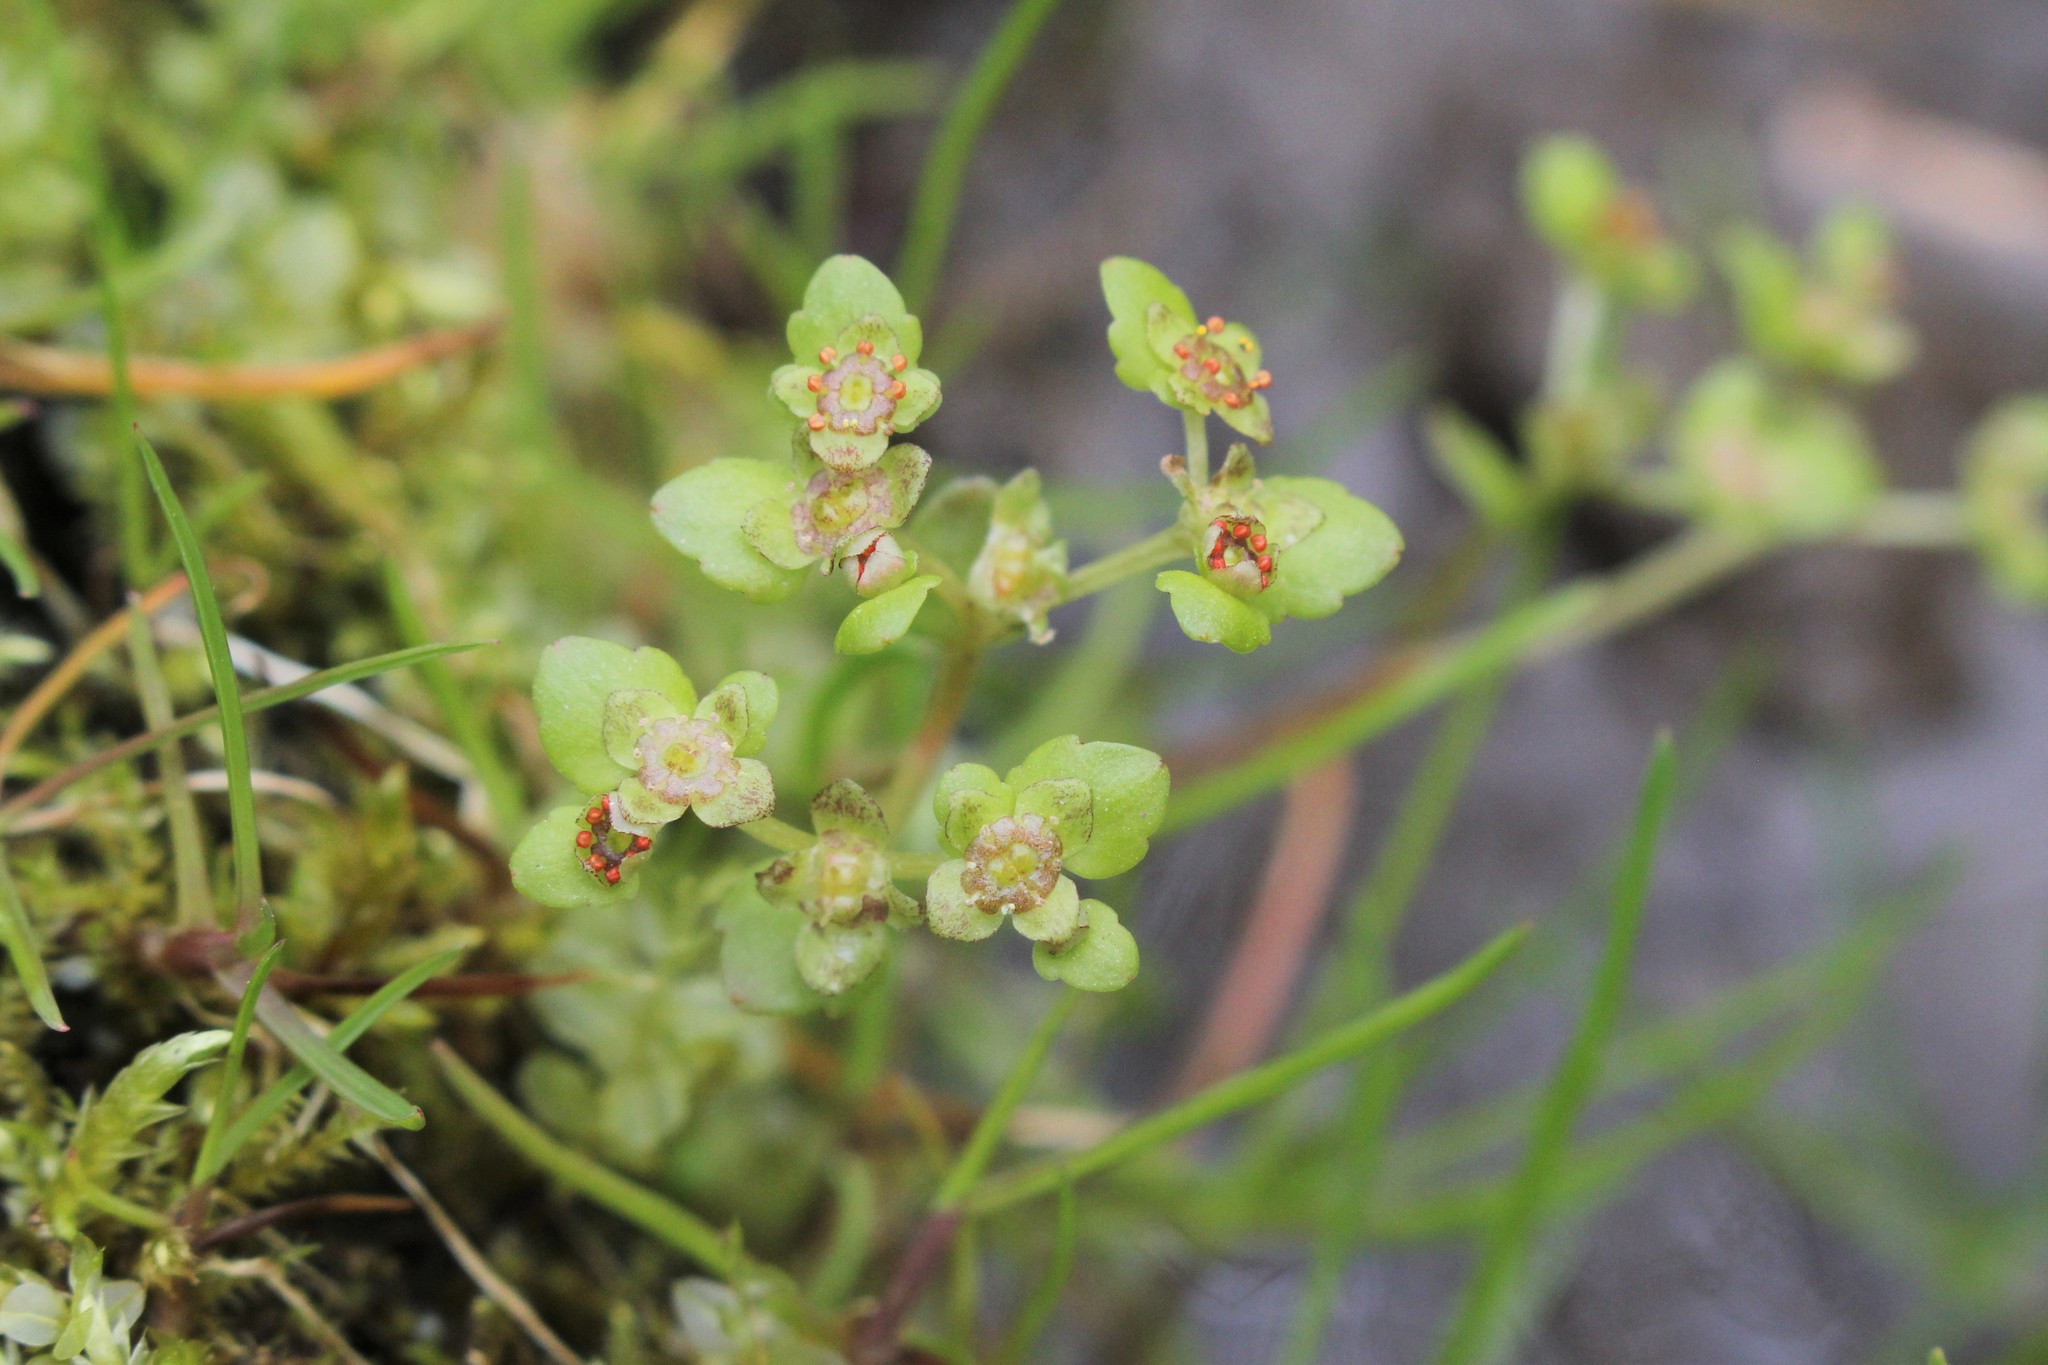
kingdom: Plantae
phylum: Tracheophyta
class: Magnoliopsida
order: Saxifragales
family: Saxifragaceae
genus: Chrysosplenium
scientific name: Chrysosplenium americanum
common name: American golden-saxifrage
